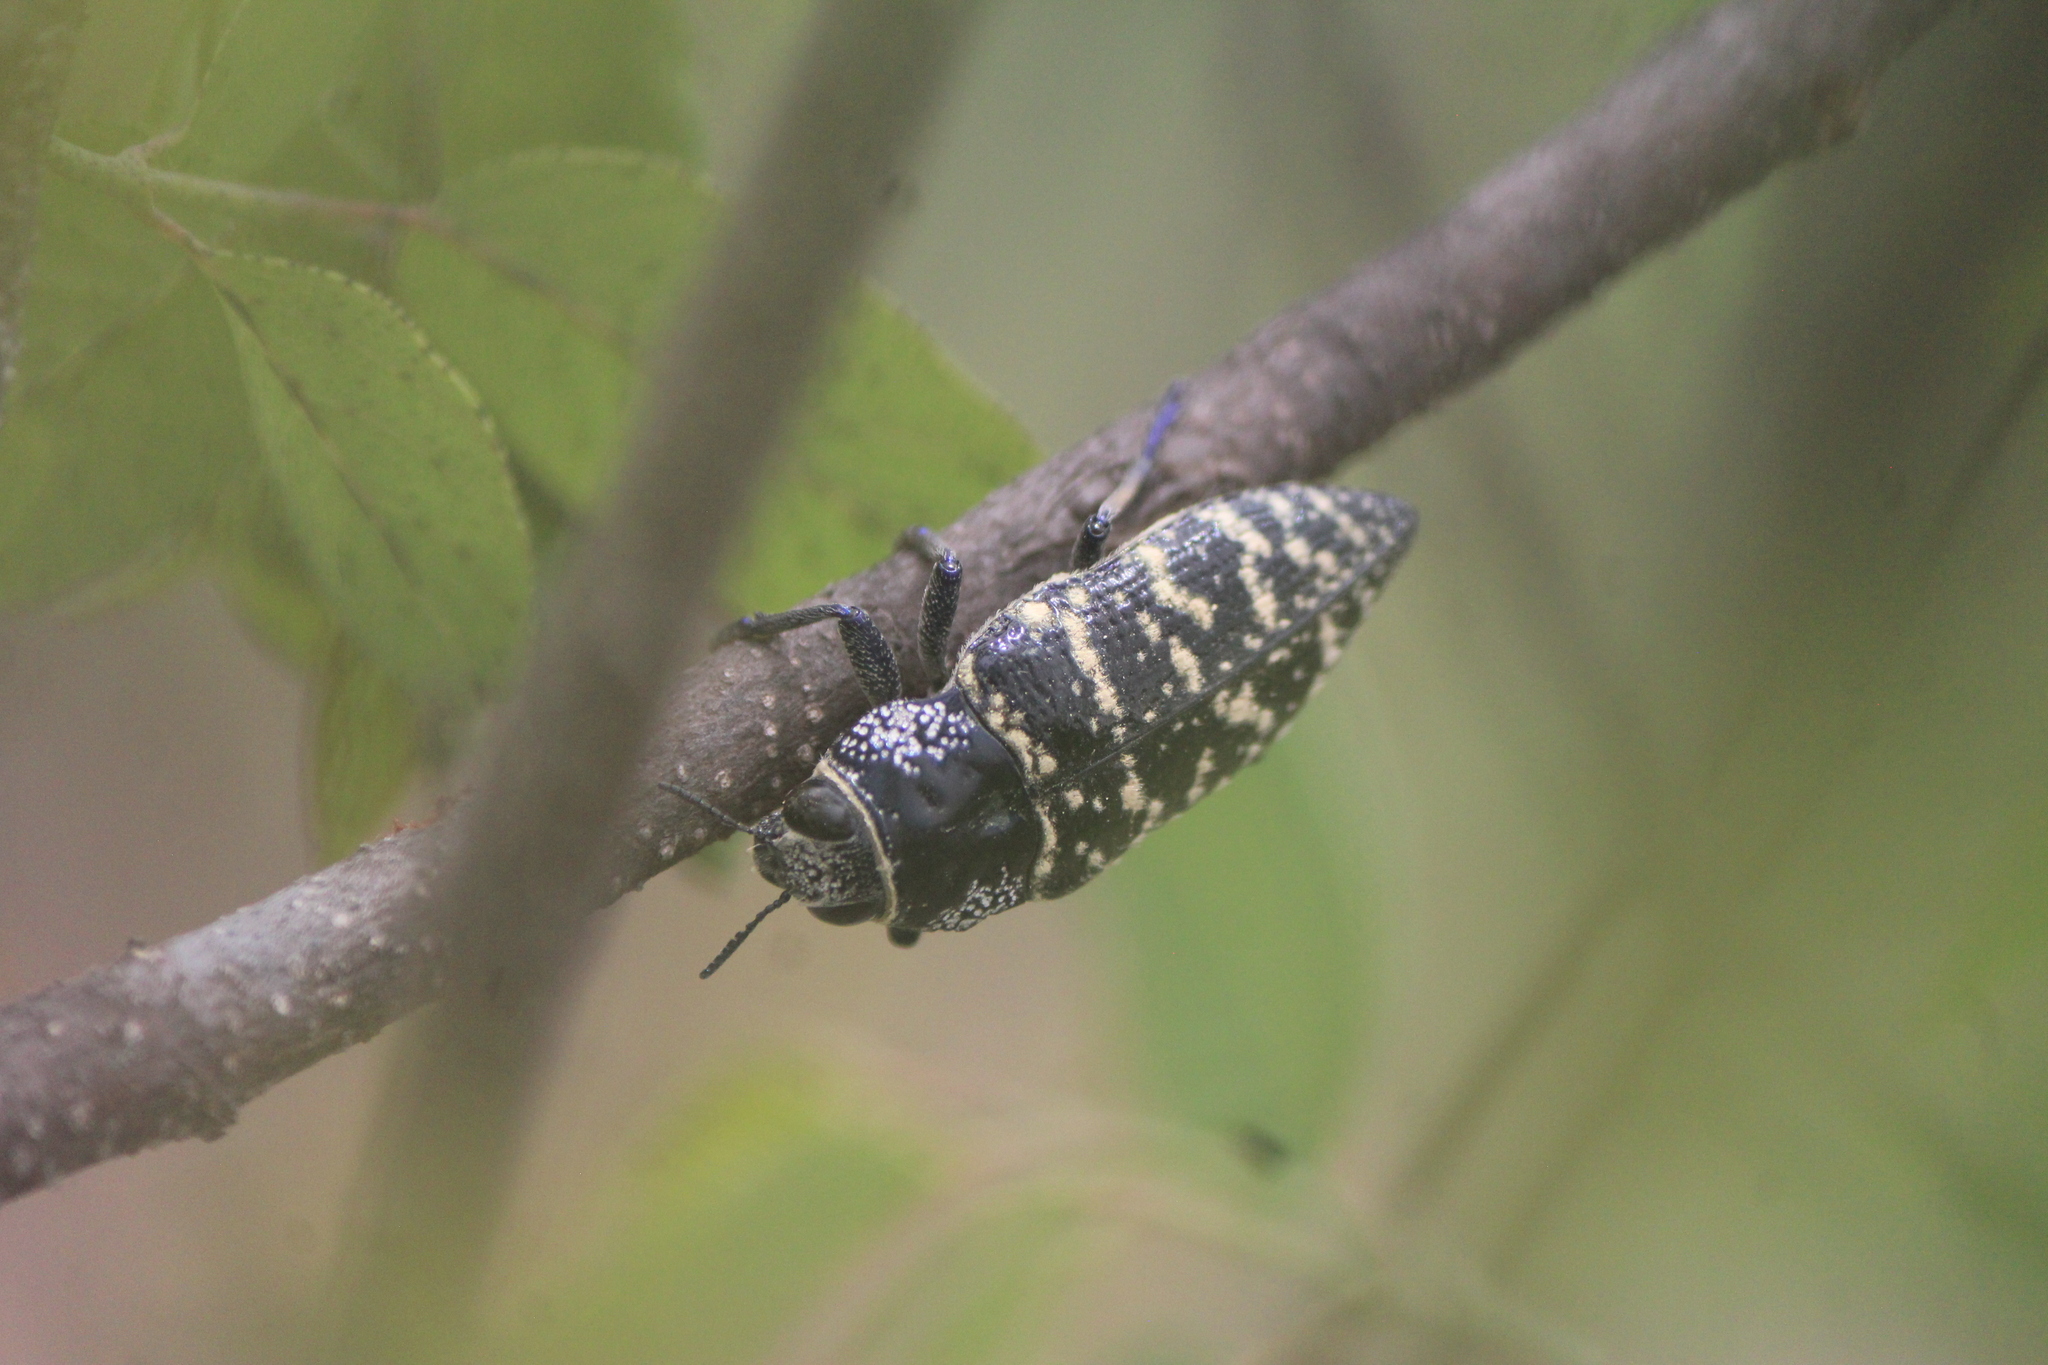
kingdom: Animalia
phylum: Arthropoda
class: Insecta
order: Coleoptera
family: Buprestidae
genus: Lampetis
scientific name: Lampetis dilaticollis
